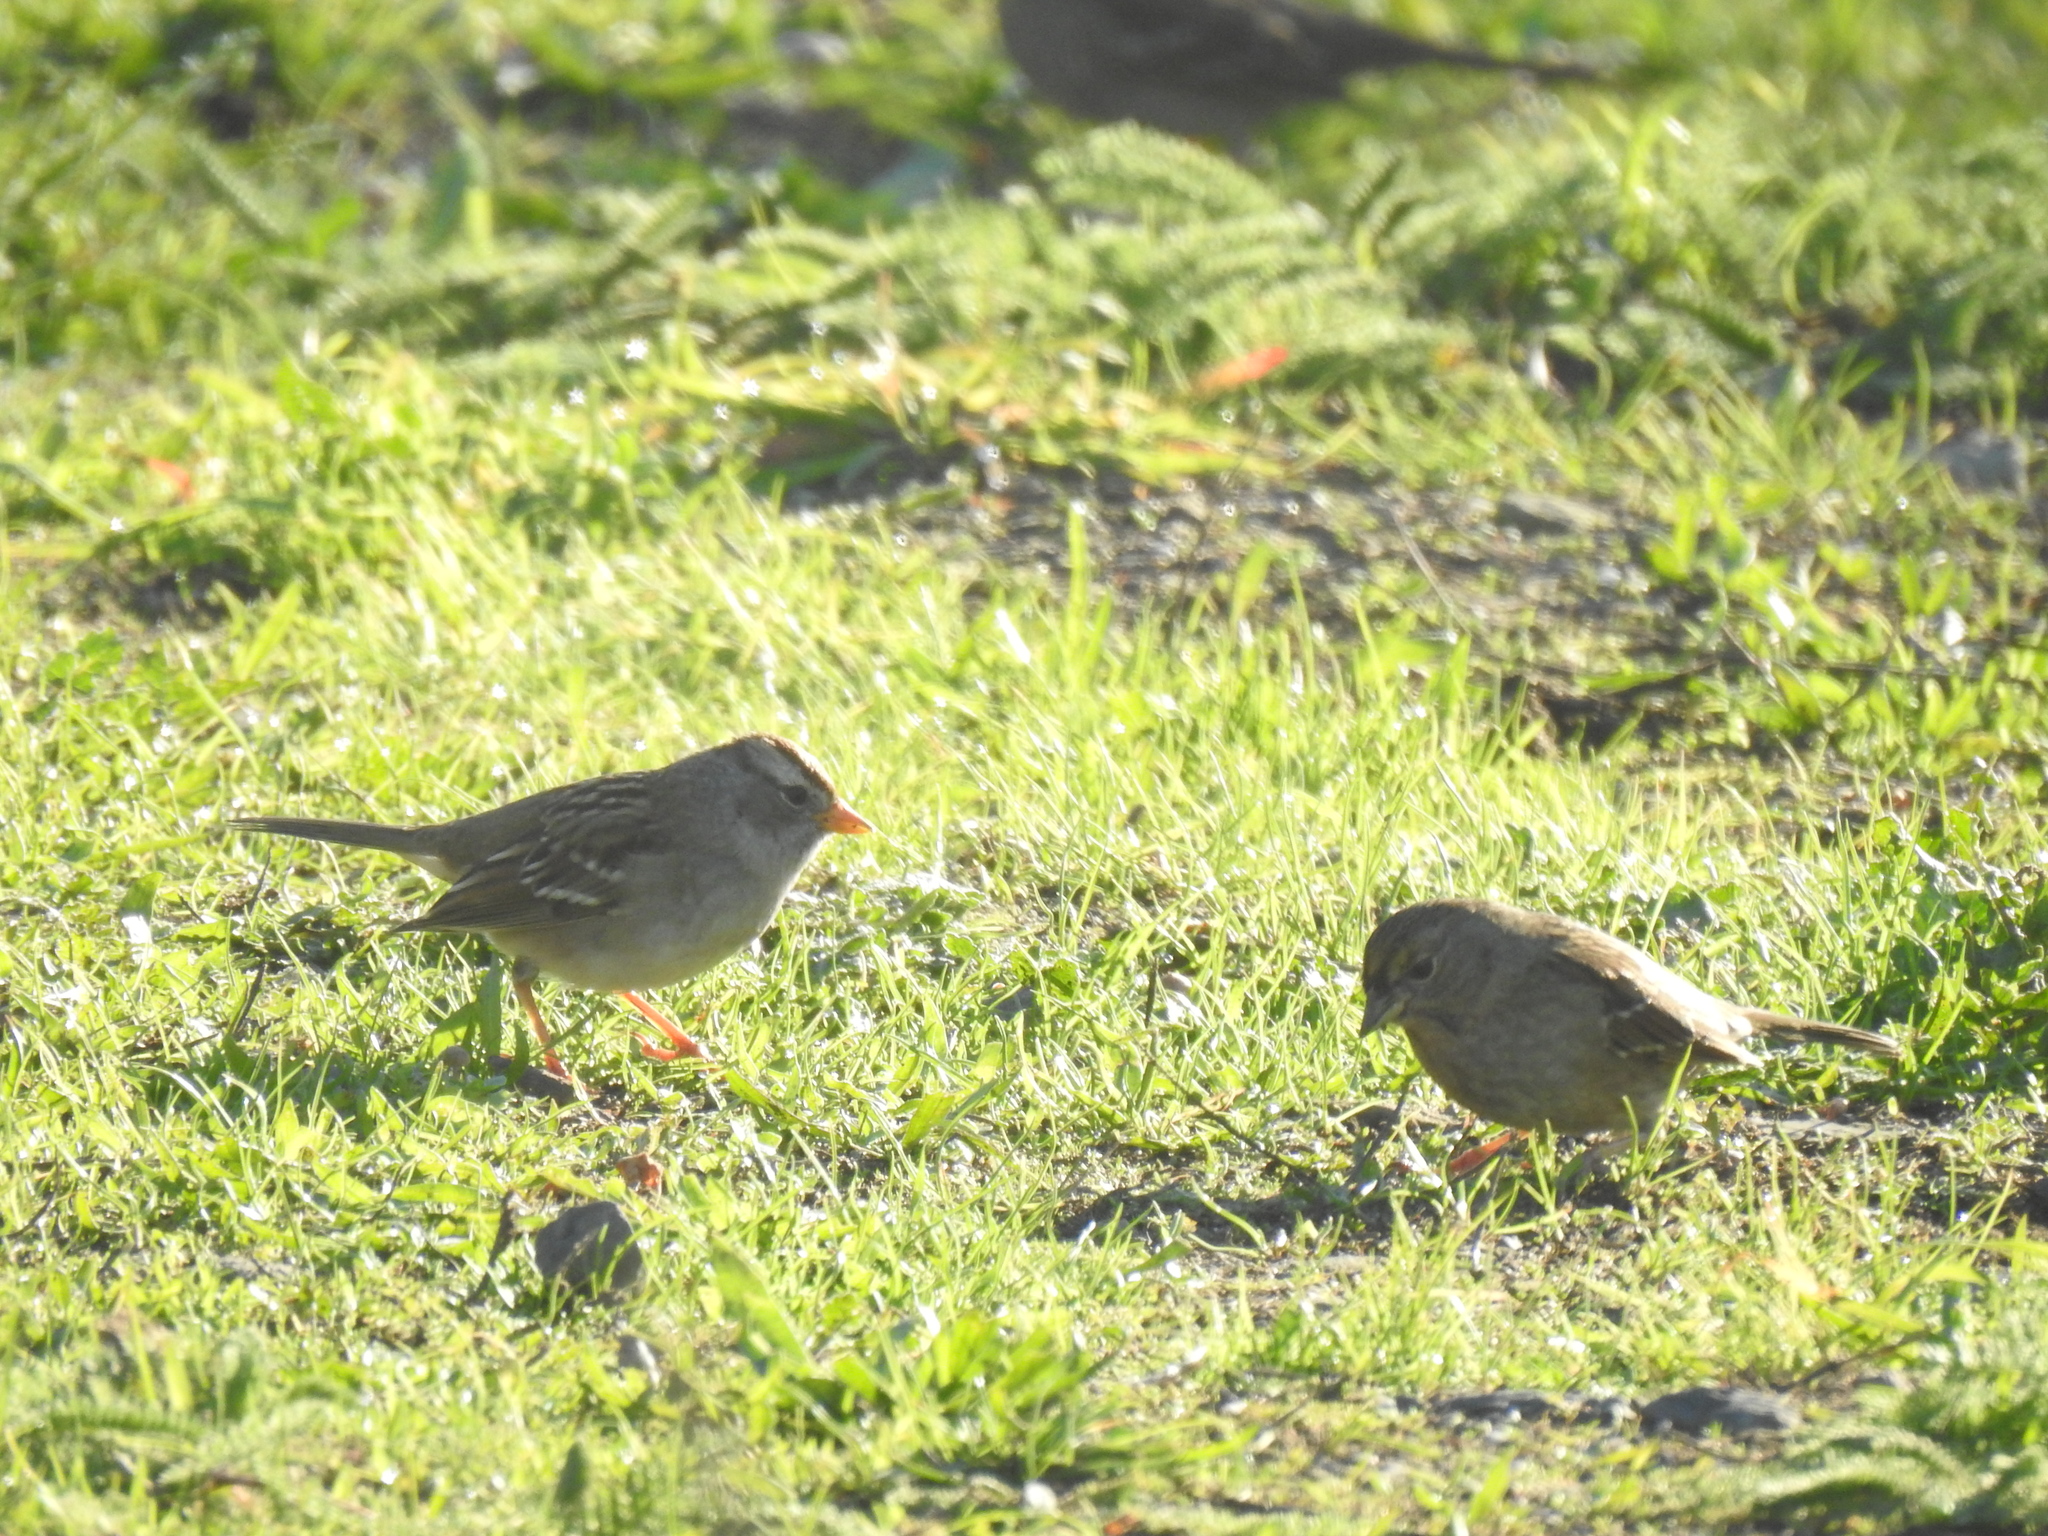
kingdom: Animalia
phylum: Chordata
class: Aves
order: Passeriformes
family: Passerellidae
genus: Zonotrichia
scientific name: Zonotrichia leucophrys
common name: White-crowned sparrow
